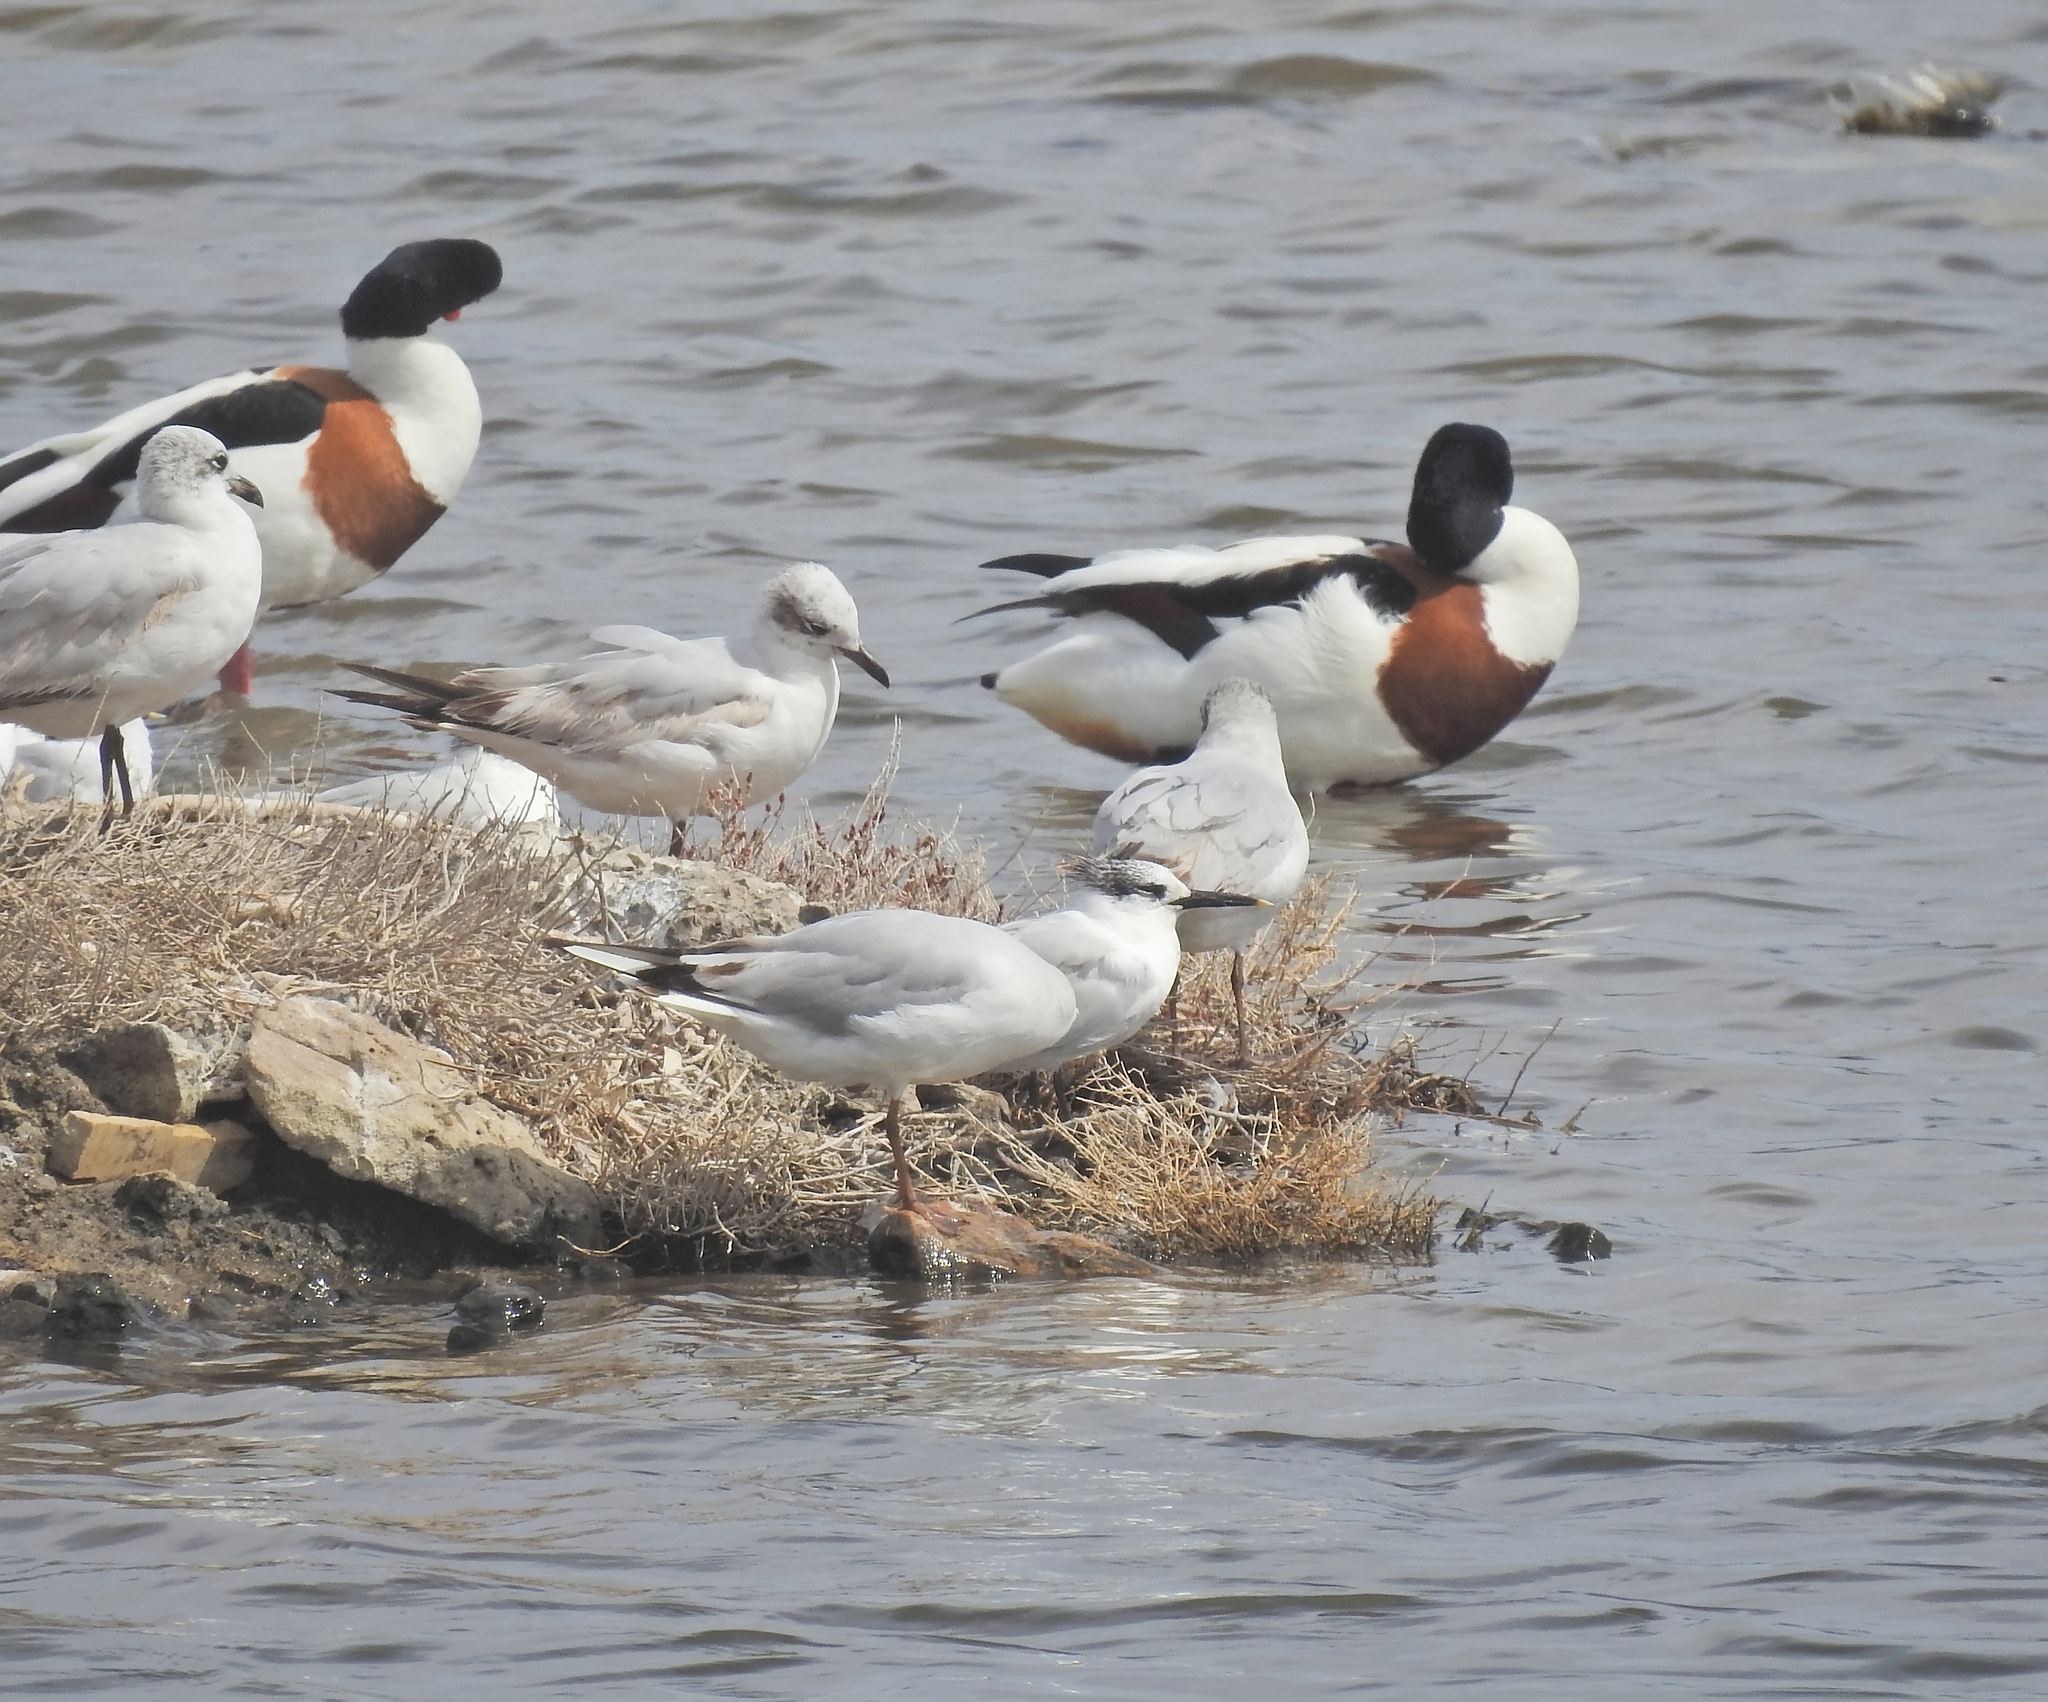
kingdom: Animalia
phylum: Chordata
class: Aves
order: Charadriiformes
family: Laridae
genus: Thalasseus
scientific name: Thalasseus sandvicensis
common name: Sandwich tern
